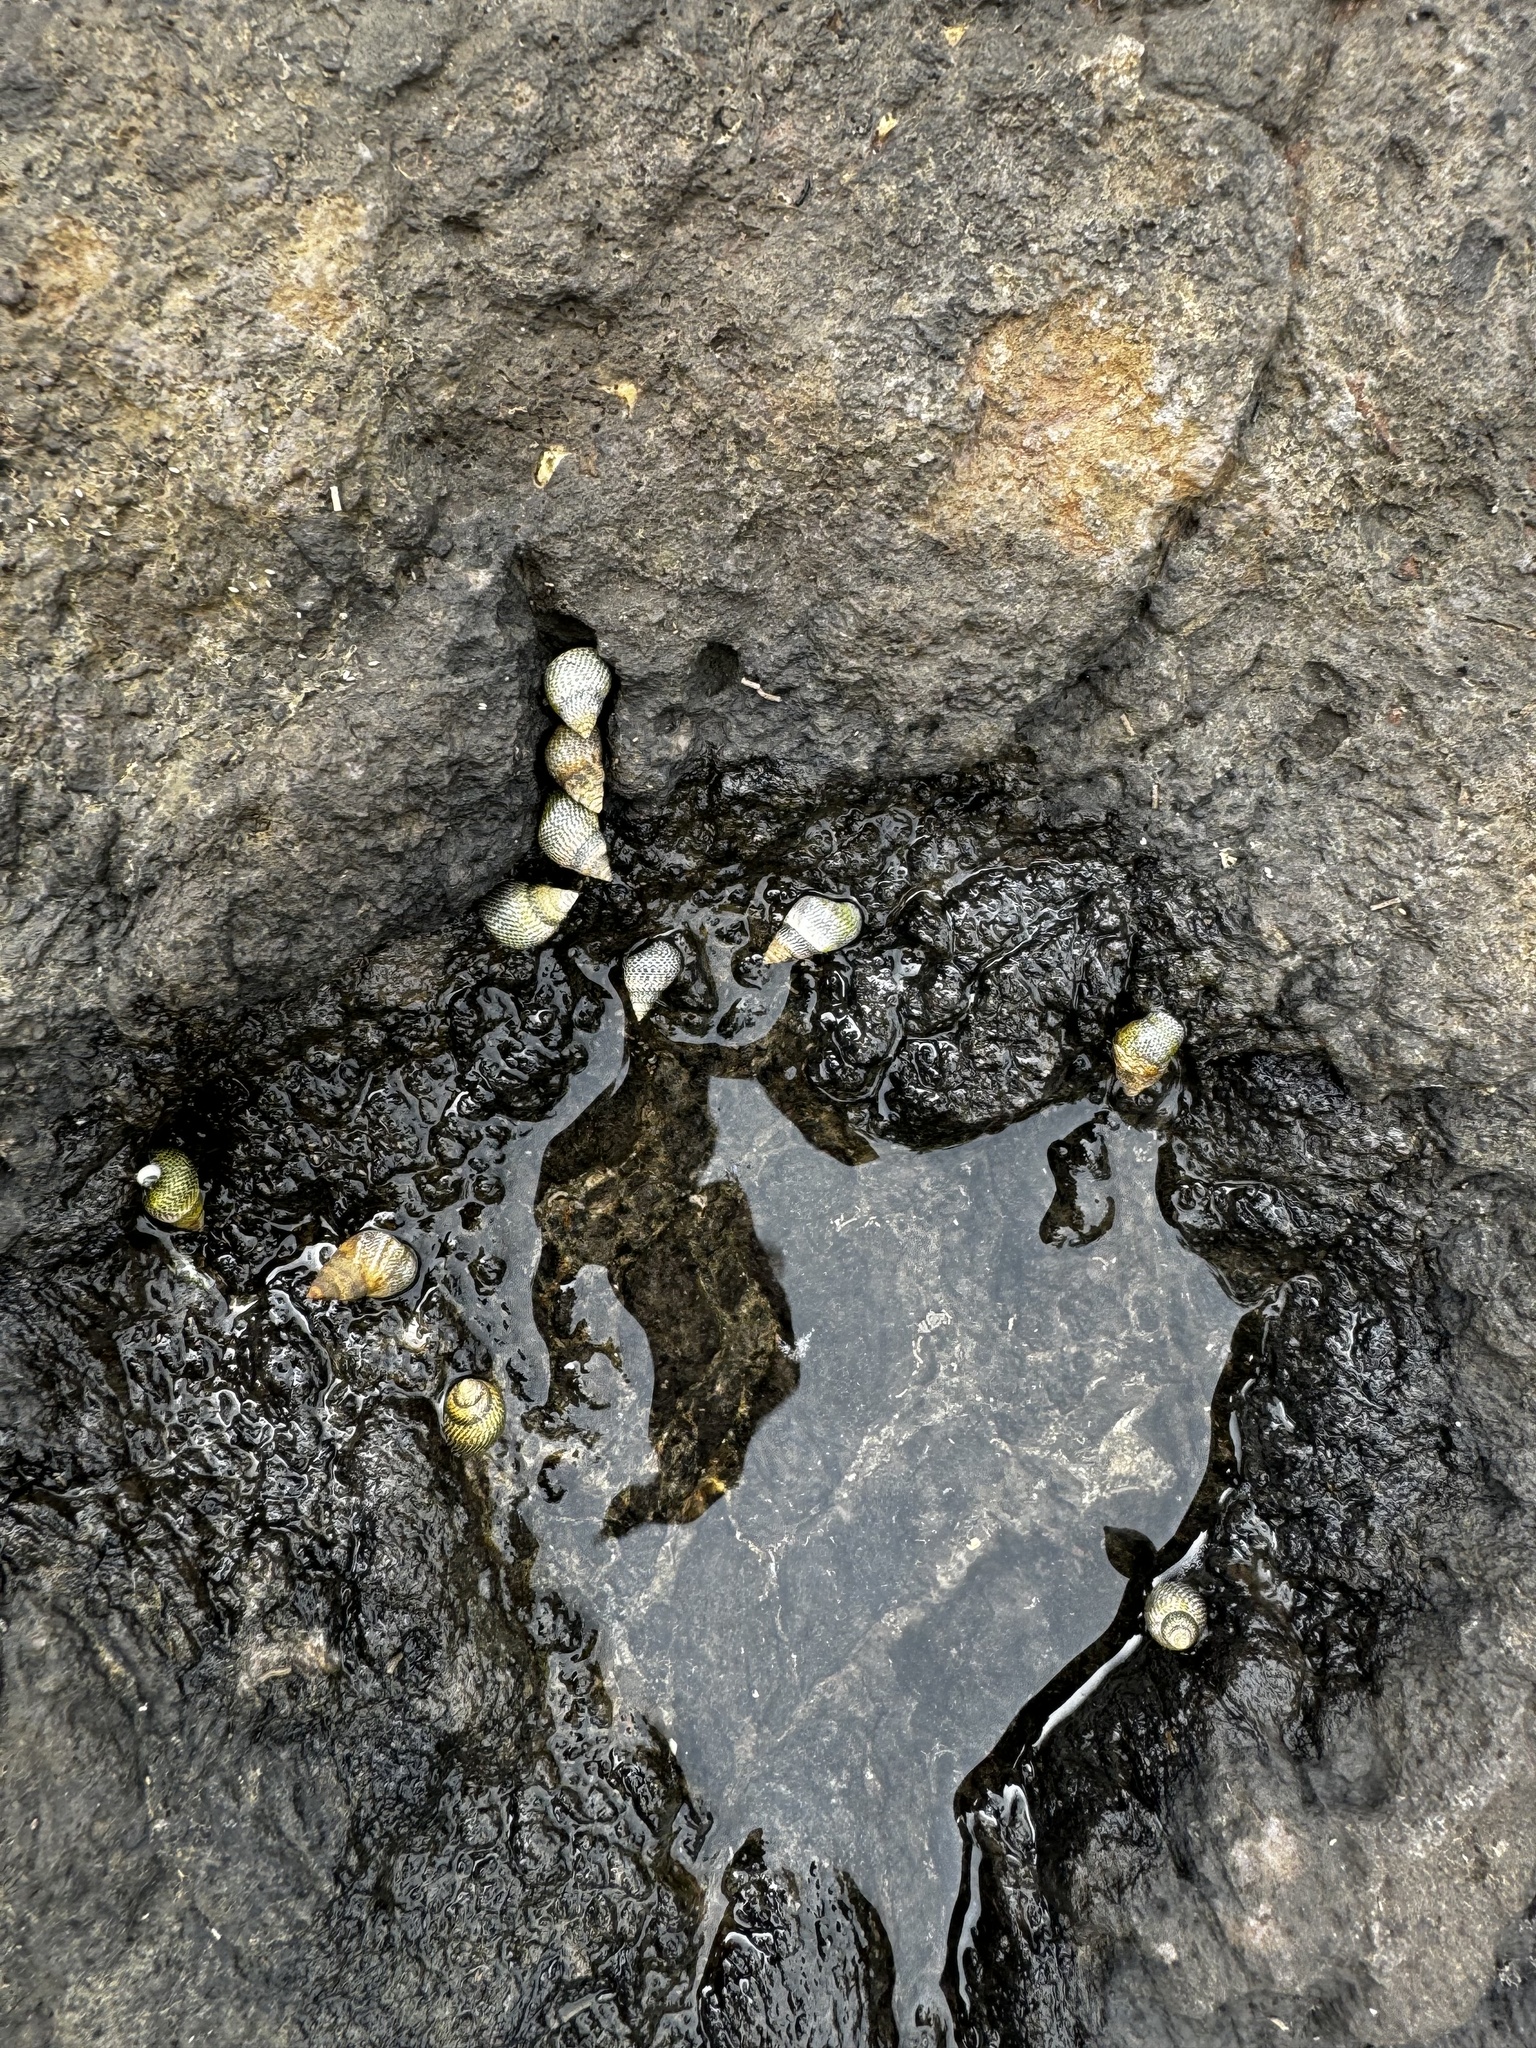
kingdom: Animalia
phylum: Mollusca
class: Gastropoda
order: Littorinimorpha
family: Littorinidae
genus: Littoraria
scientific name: Littoraria pintado
